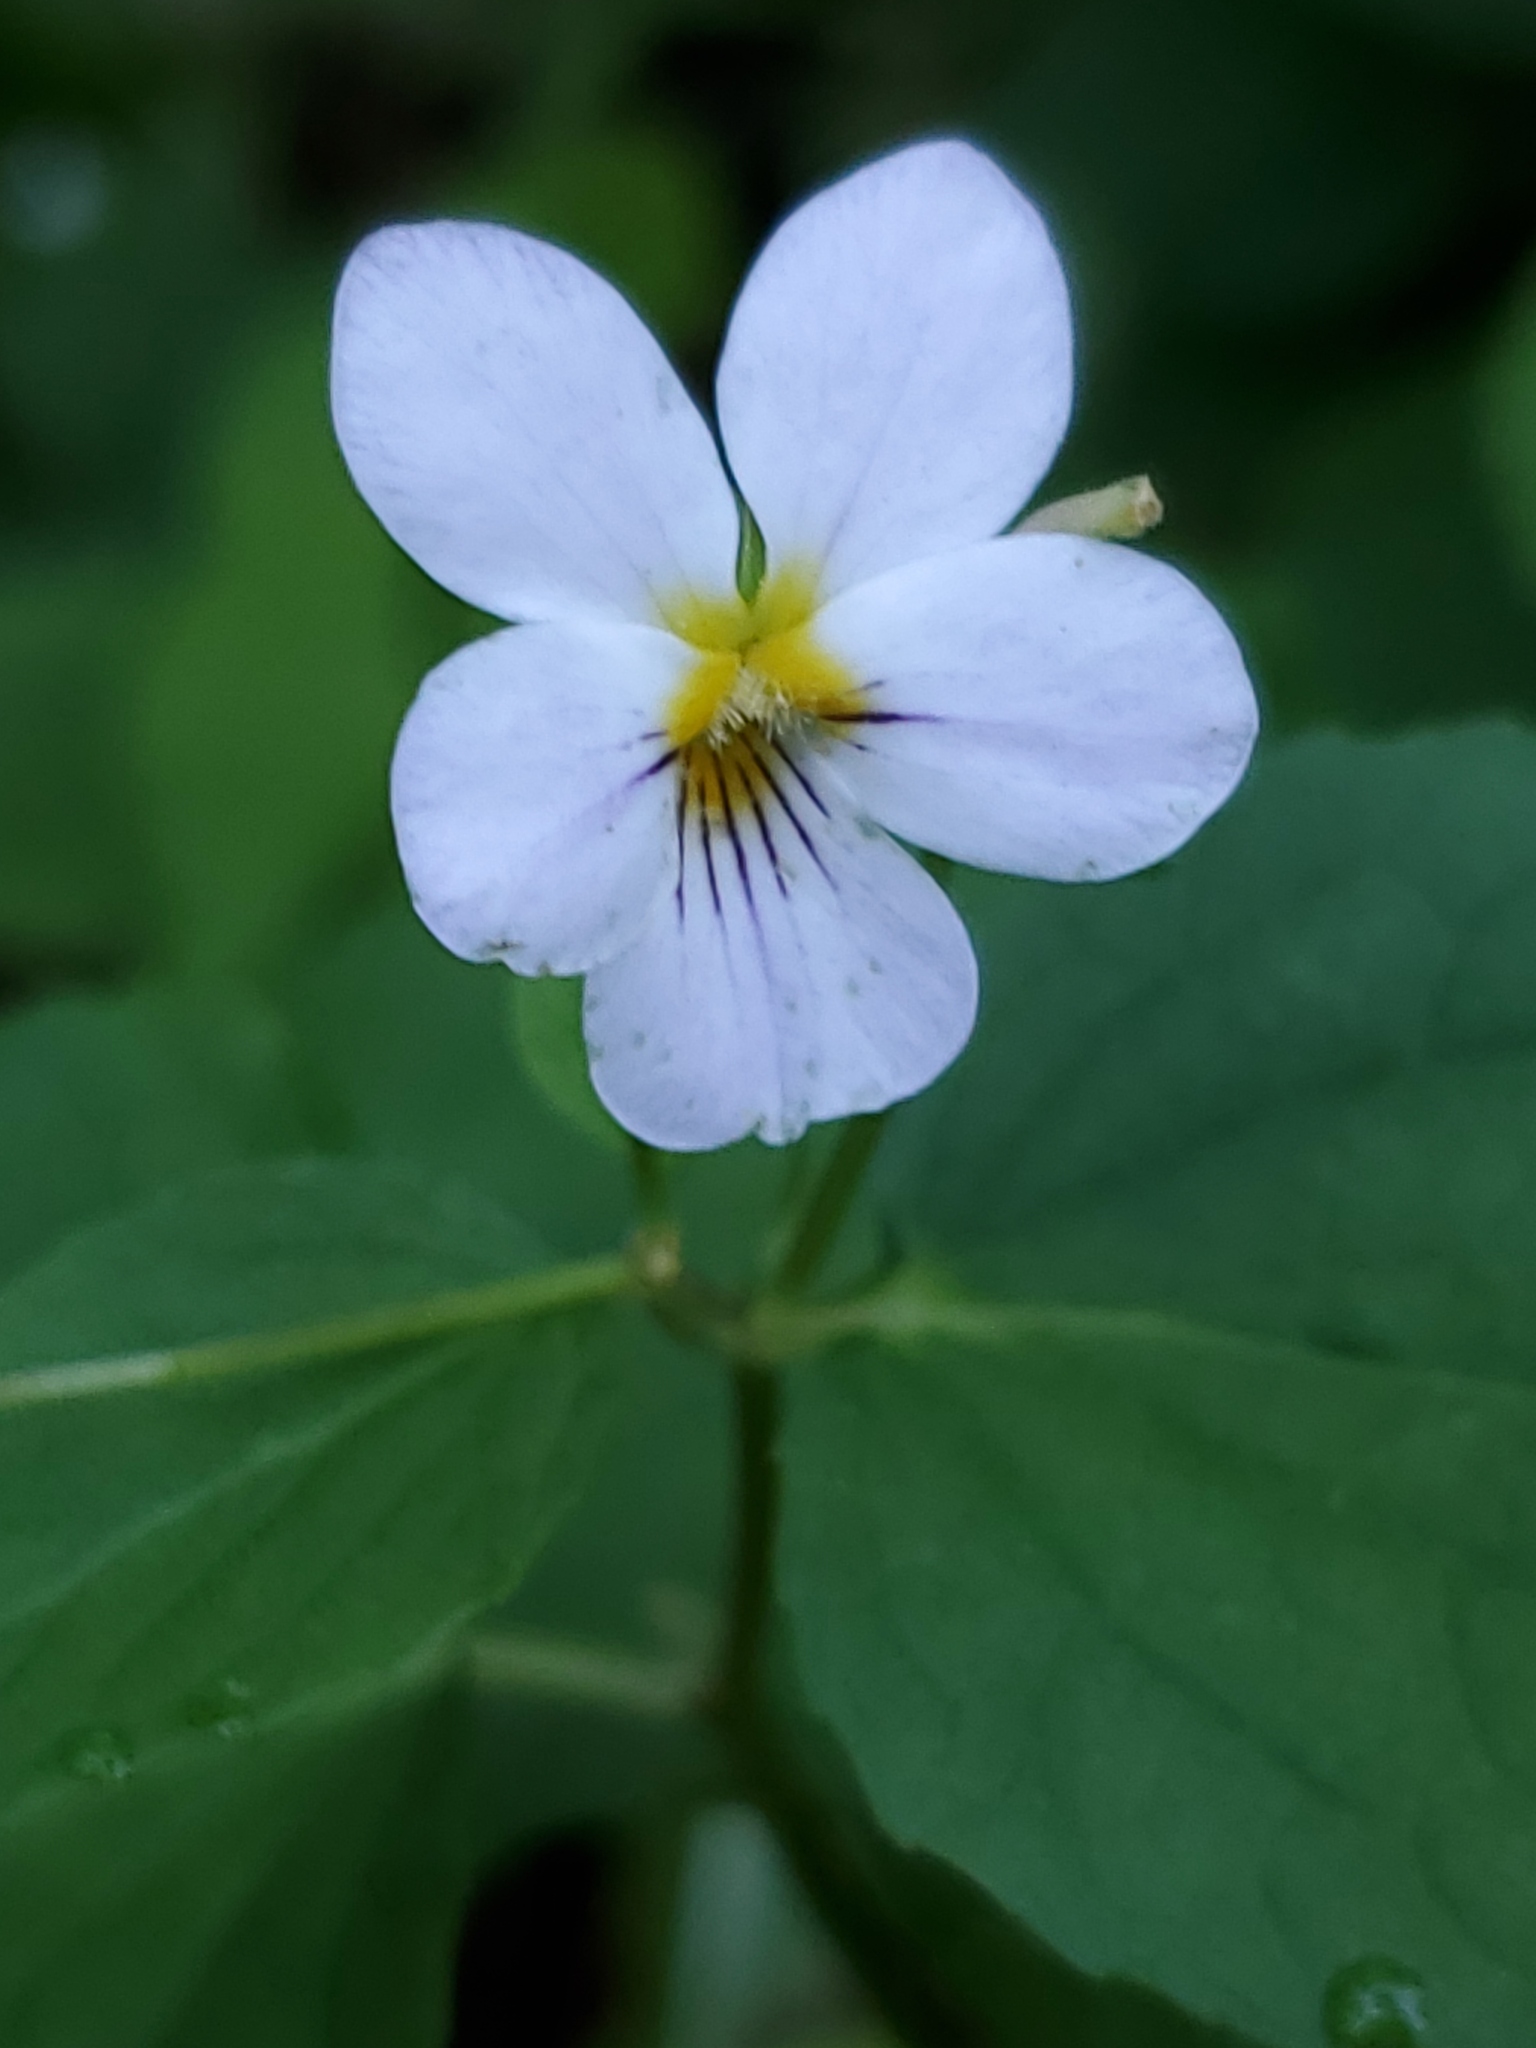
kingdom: Plantae
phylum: Tracheophyta
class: Magnoliopsida
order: Malpighiales
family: Violaceae
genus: Viola
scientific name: Viola canadensis
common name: Canada violet
